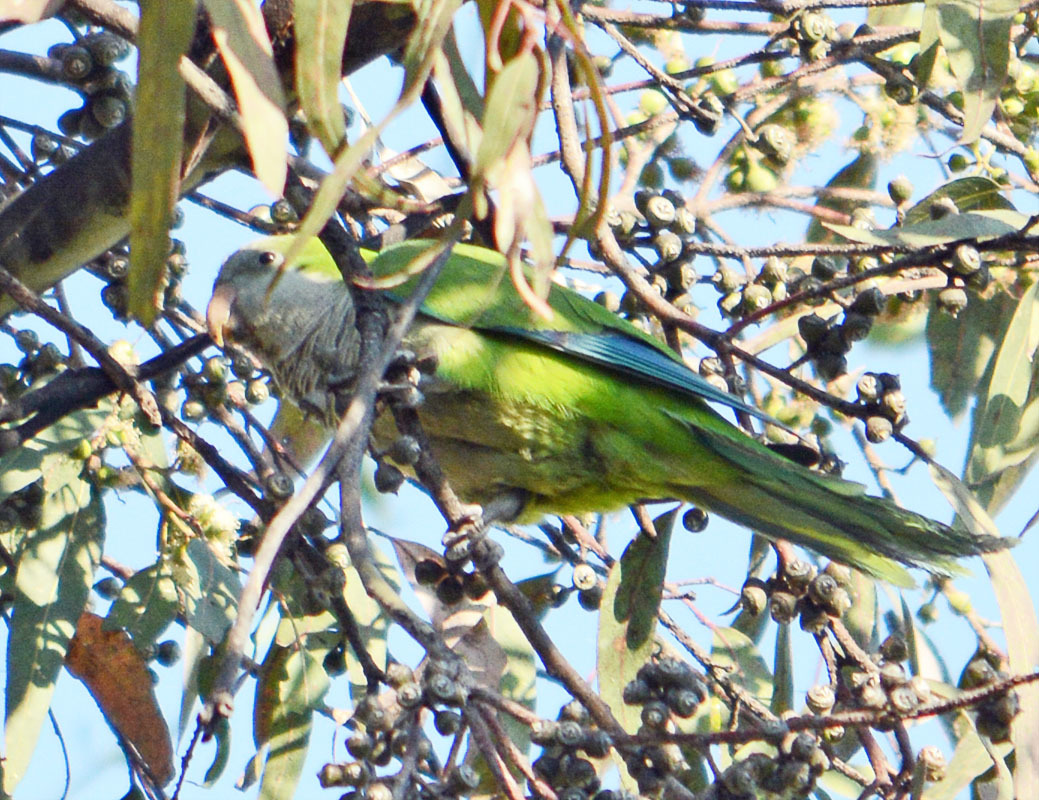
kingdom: Animalia
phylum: Chordata
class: Aves
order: Psittaciformes
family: Psittacidae
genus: Myiopsitta
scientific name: Myiopsitta monachus
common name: Monk parakeet
